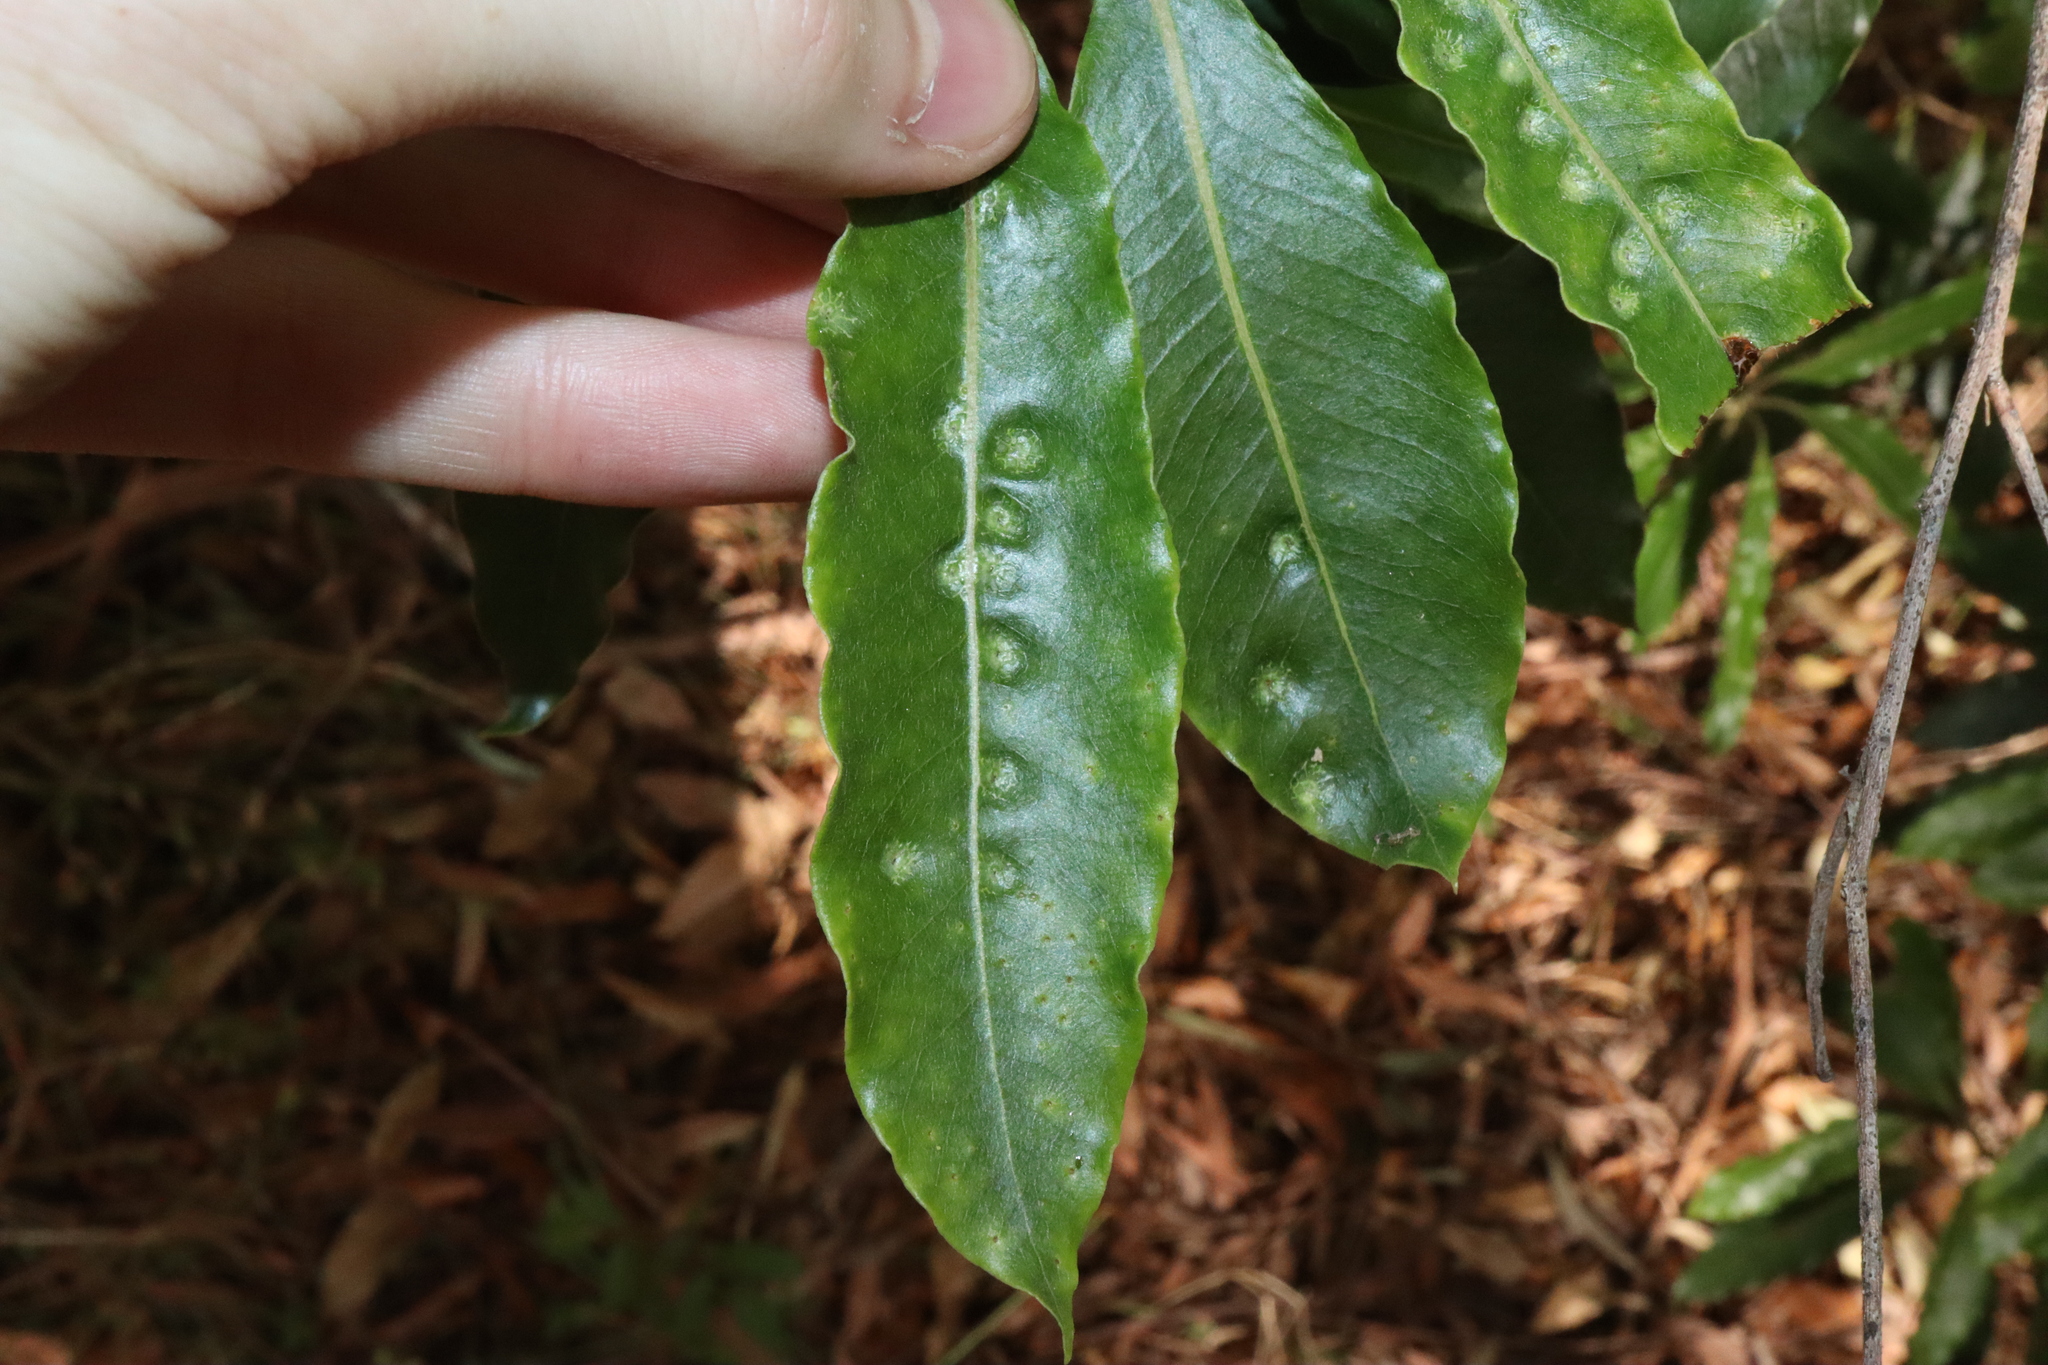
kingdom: Animalia
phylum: Arthropoda
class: Insecta
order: Diptera
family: Agromyzidae
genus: Phytoliriomyza
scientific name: Phytoliriomyza pittosporophylli
